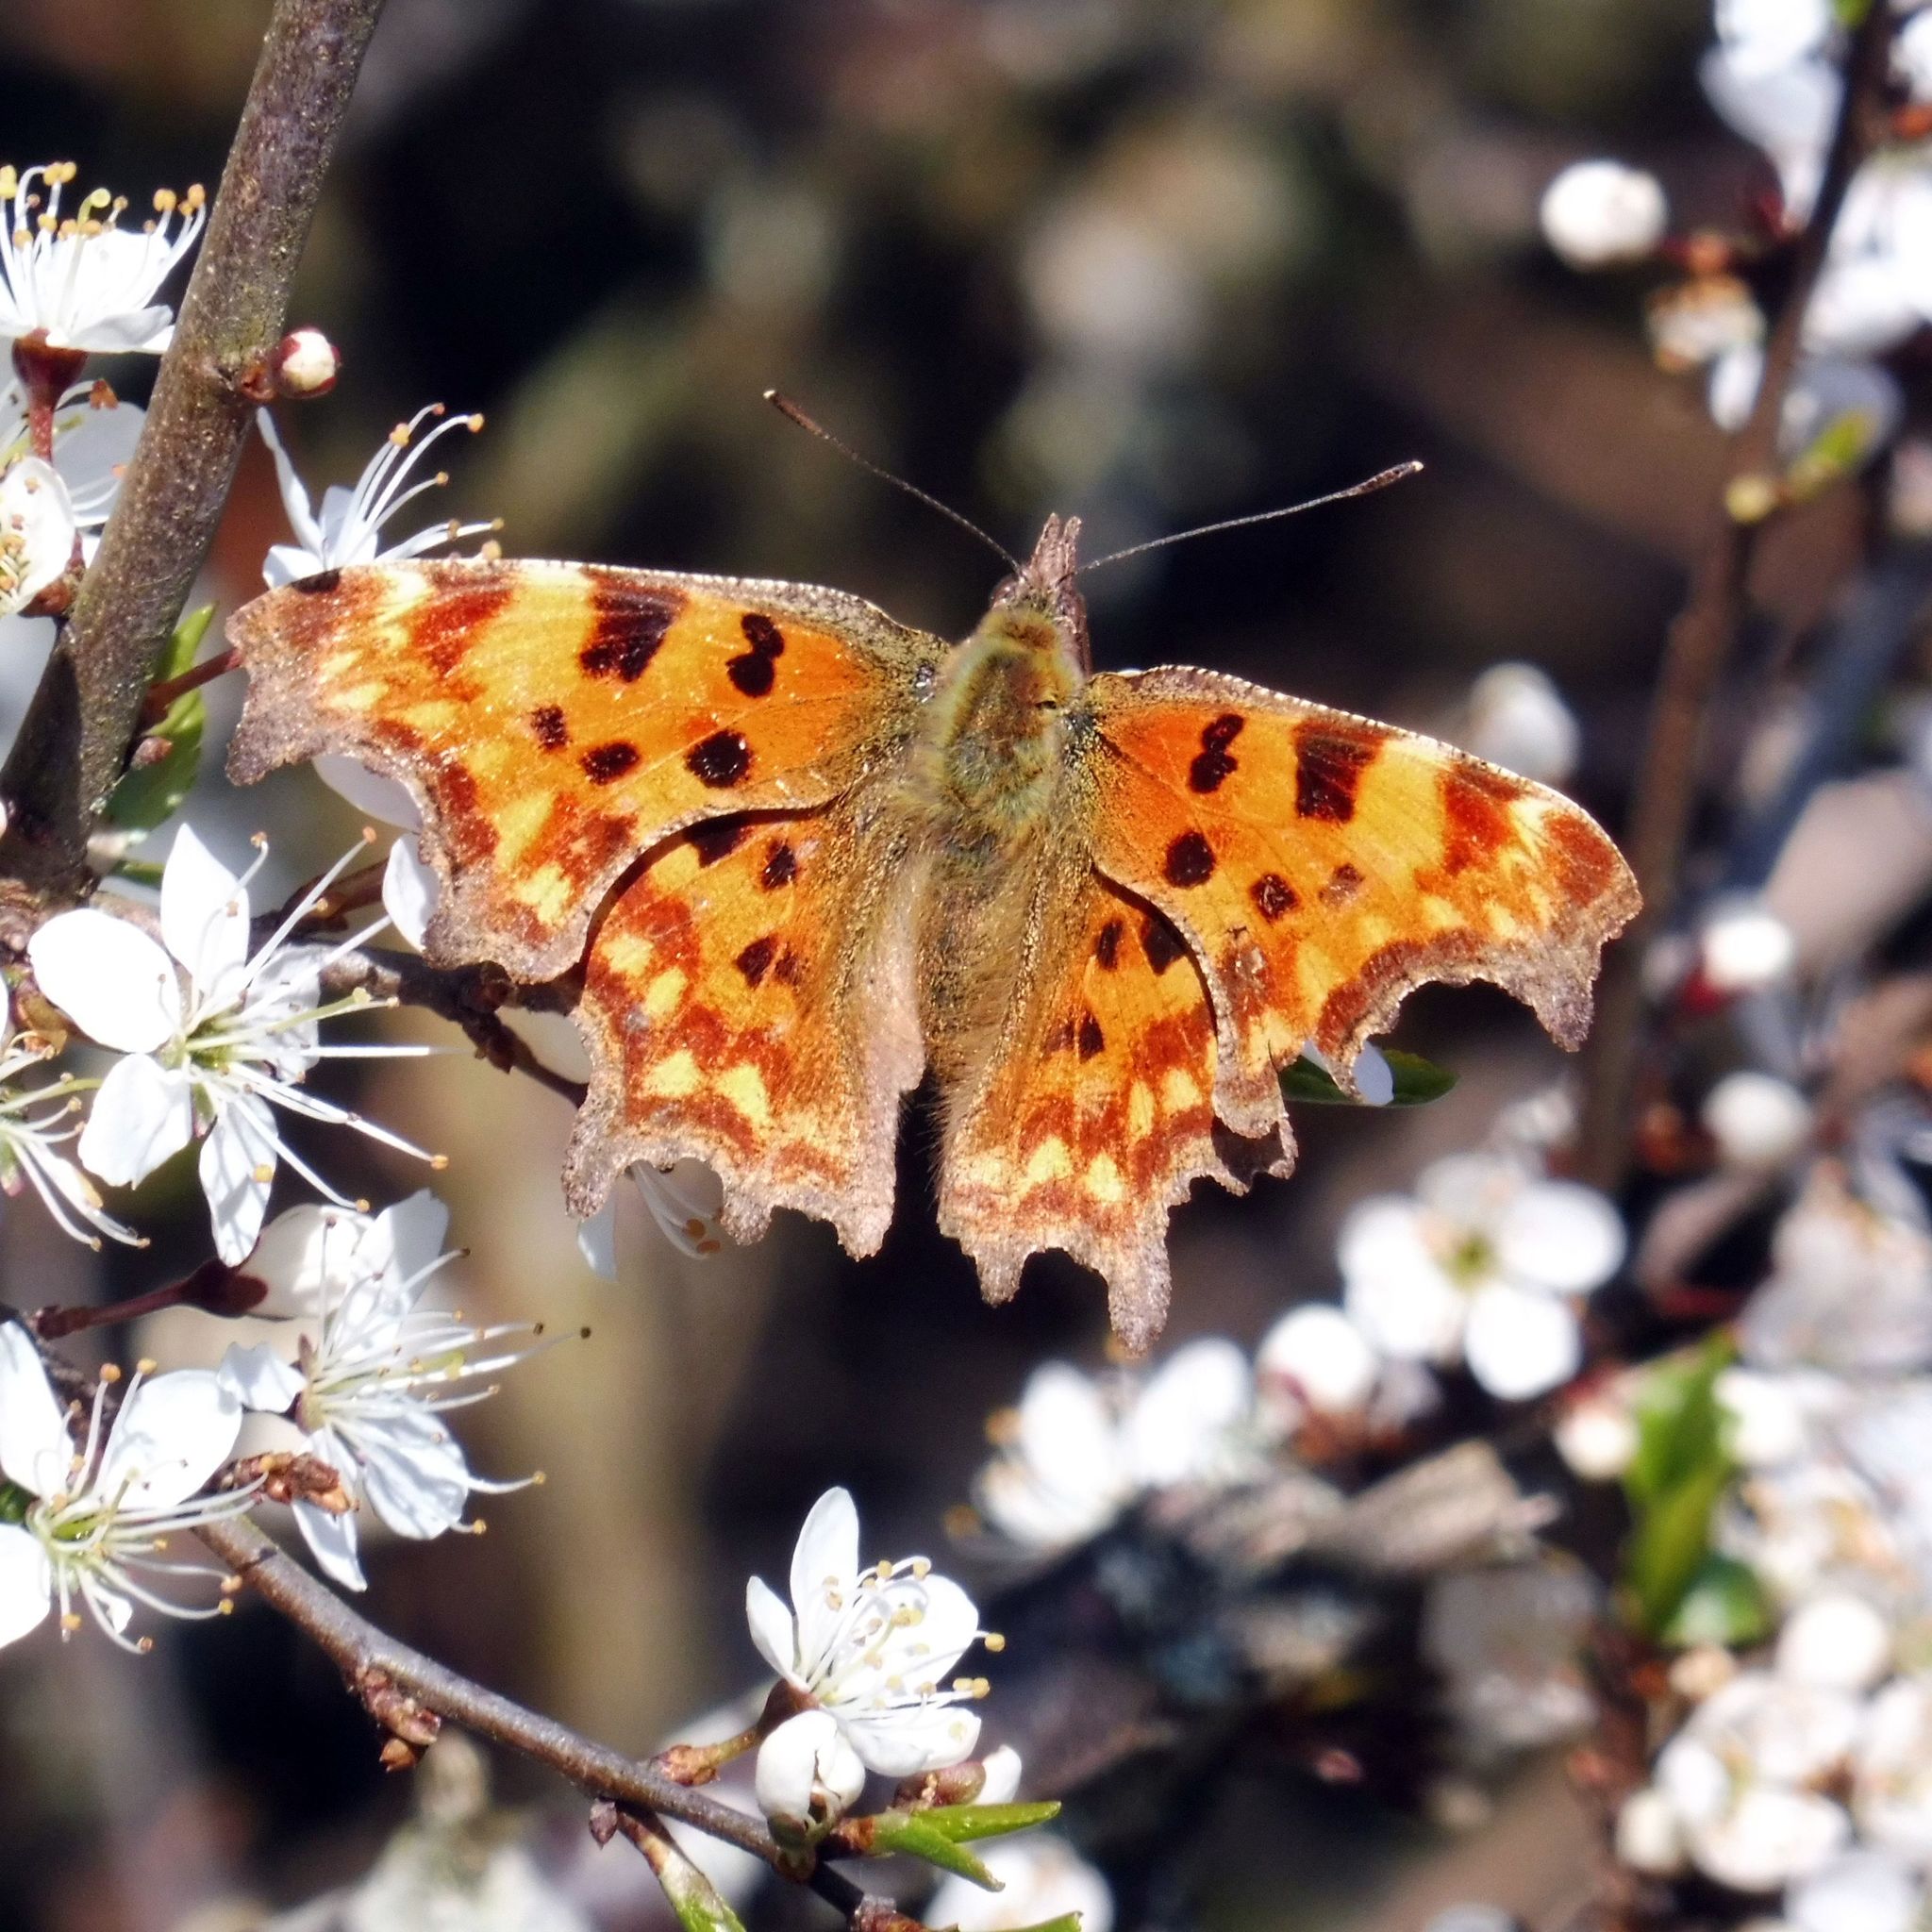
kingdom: Animalia
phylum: Arthropoda
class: Insecta
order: Lepidoptera
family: Nymphalidae
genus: Polygonia
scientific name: Polygonia c-album
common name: Comma
